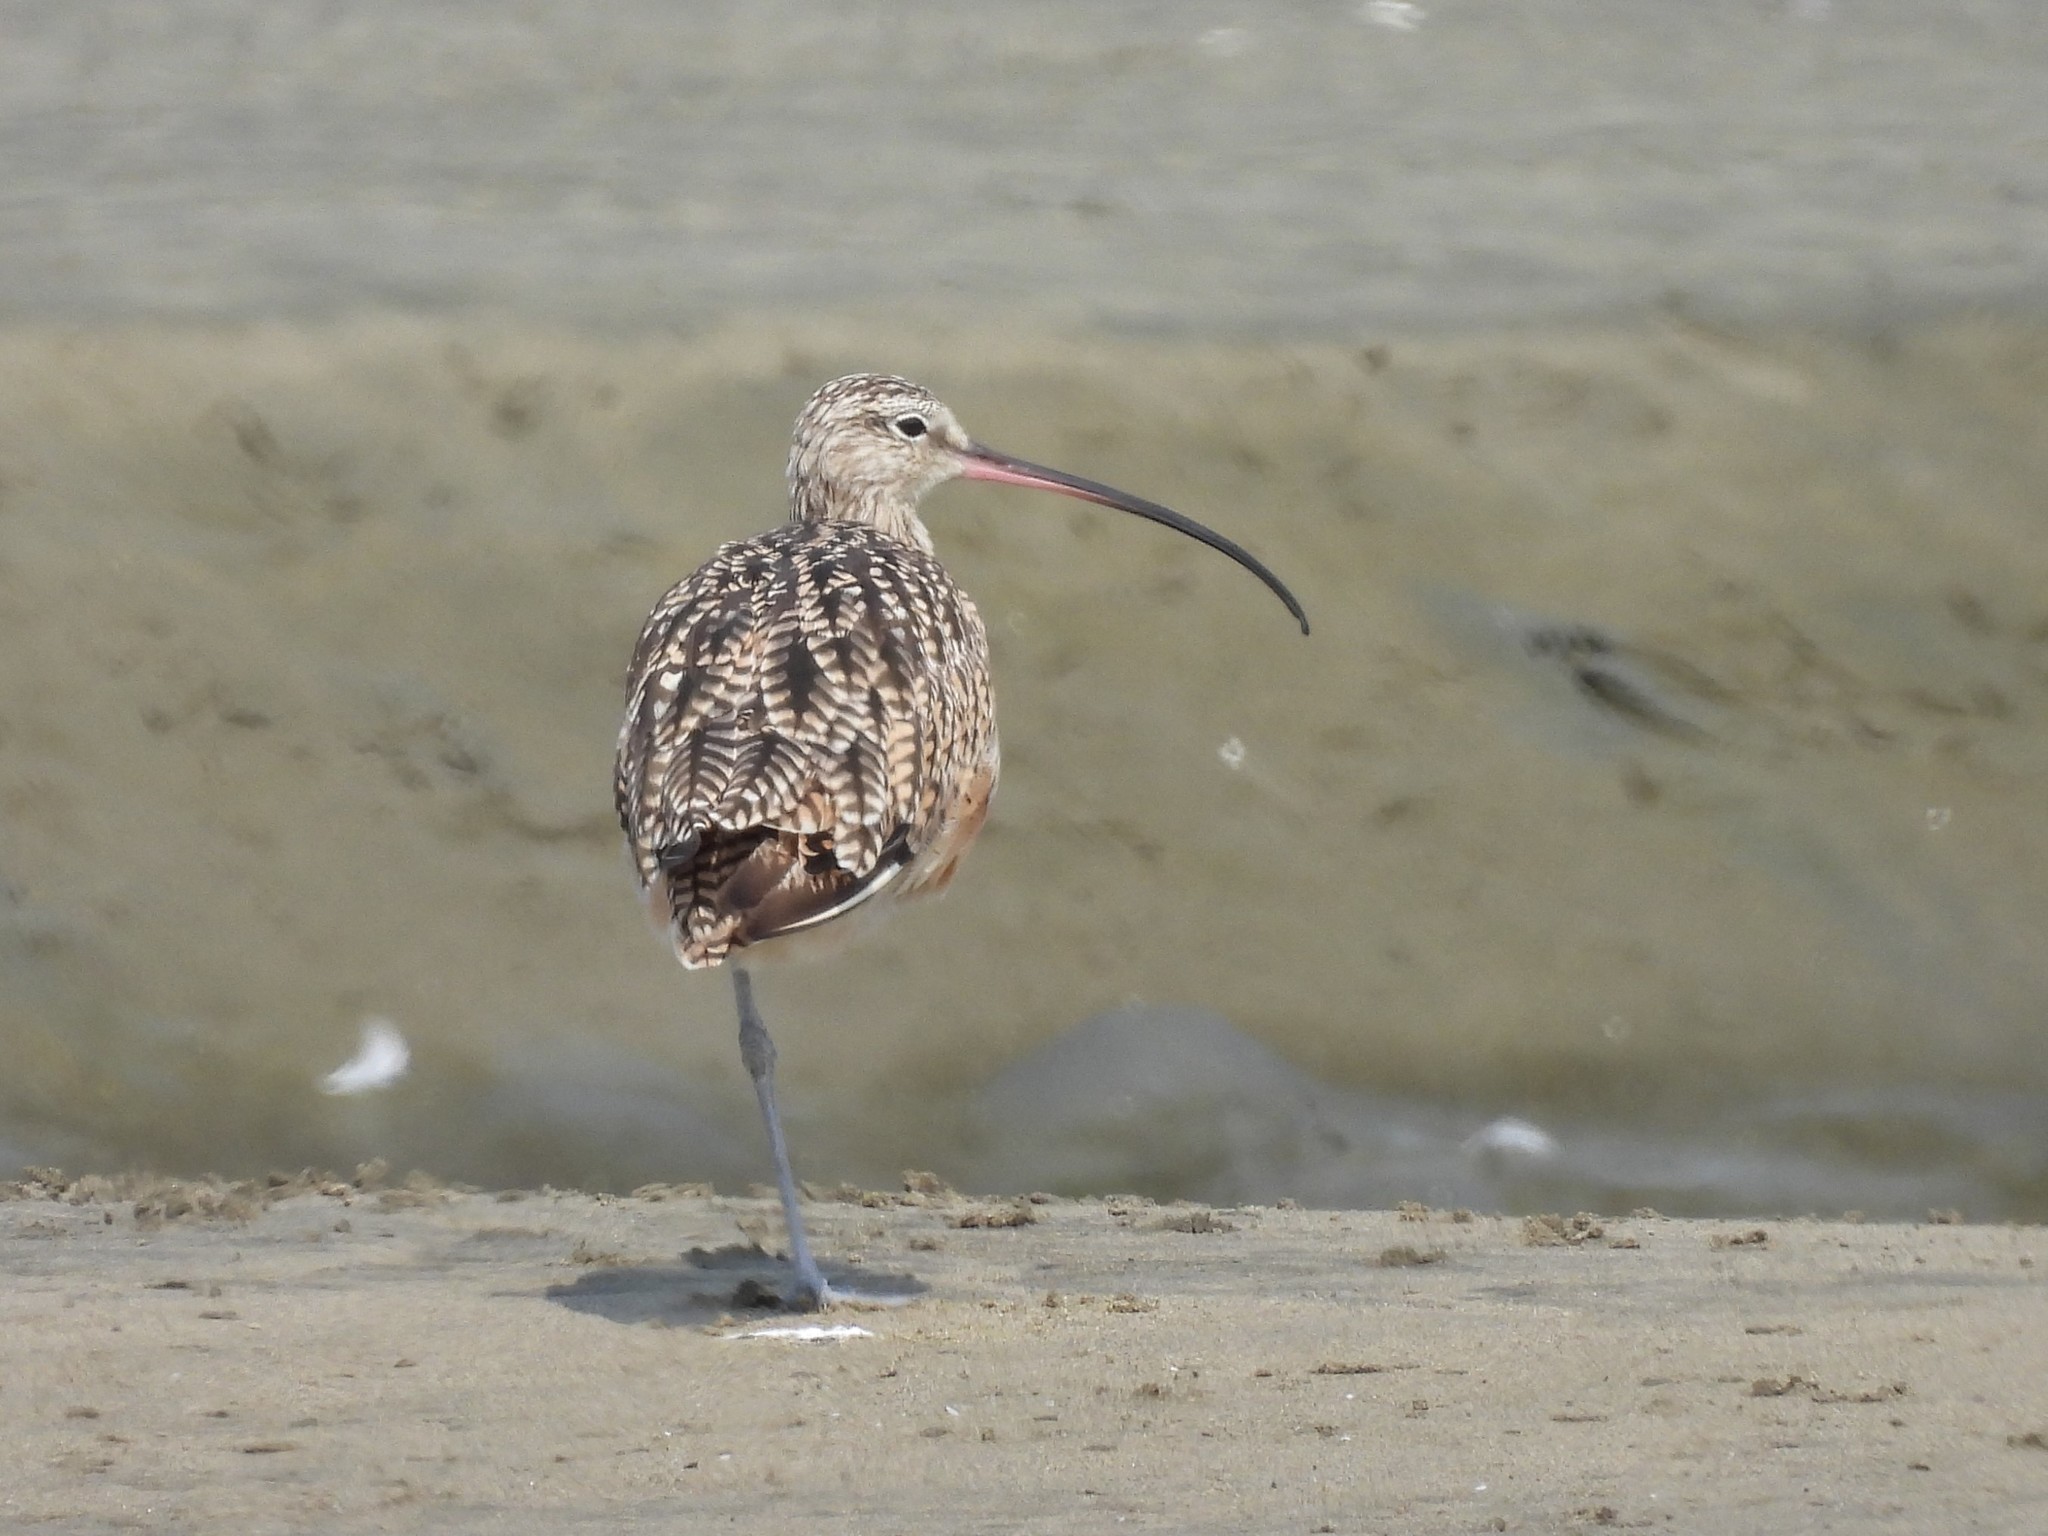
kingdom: Animalia
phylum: Chordata
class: Aves
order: Charadriiformes
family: Scolopacidae
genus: Numenius
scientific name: Numenius americanus
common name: Long-billed curlew
